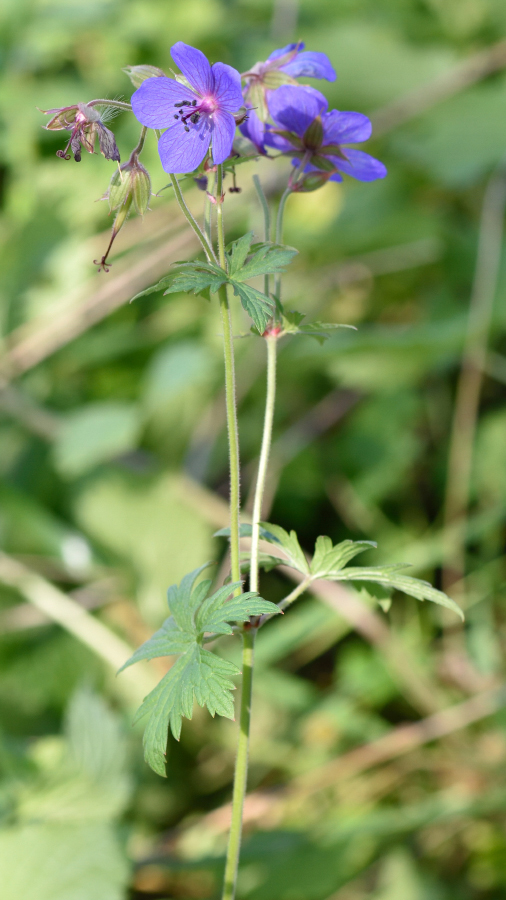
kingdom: Plantae
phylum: Tracheophyta
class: Magnoliopsida
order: Geraniales
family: Geraniaceae
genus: Geranium
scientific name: Geranium pratense
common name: Meadow crane's-bill
